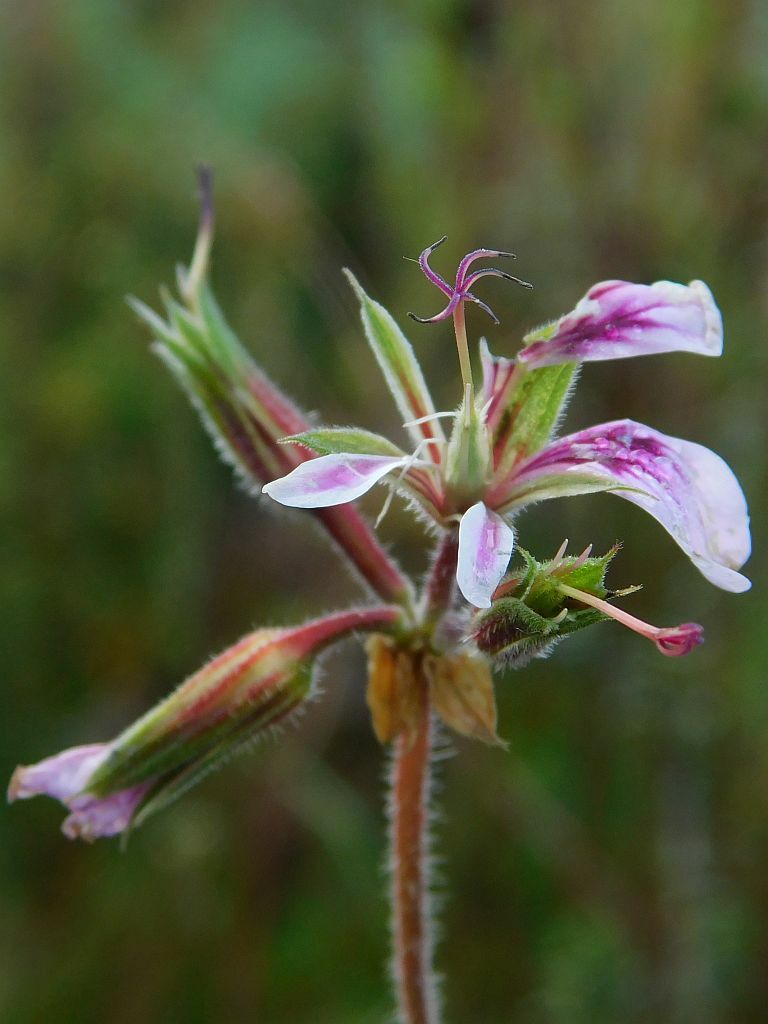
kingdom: Plantae
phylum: Tracheophyta
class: Magnoliopsida
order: Geraniales
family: Geraniaceae
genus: Pelargonium
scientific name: Pelargonium candicans
